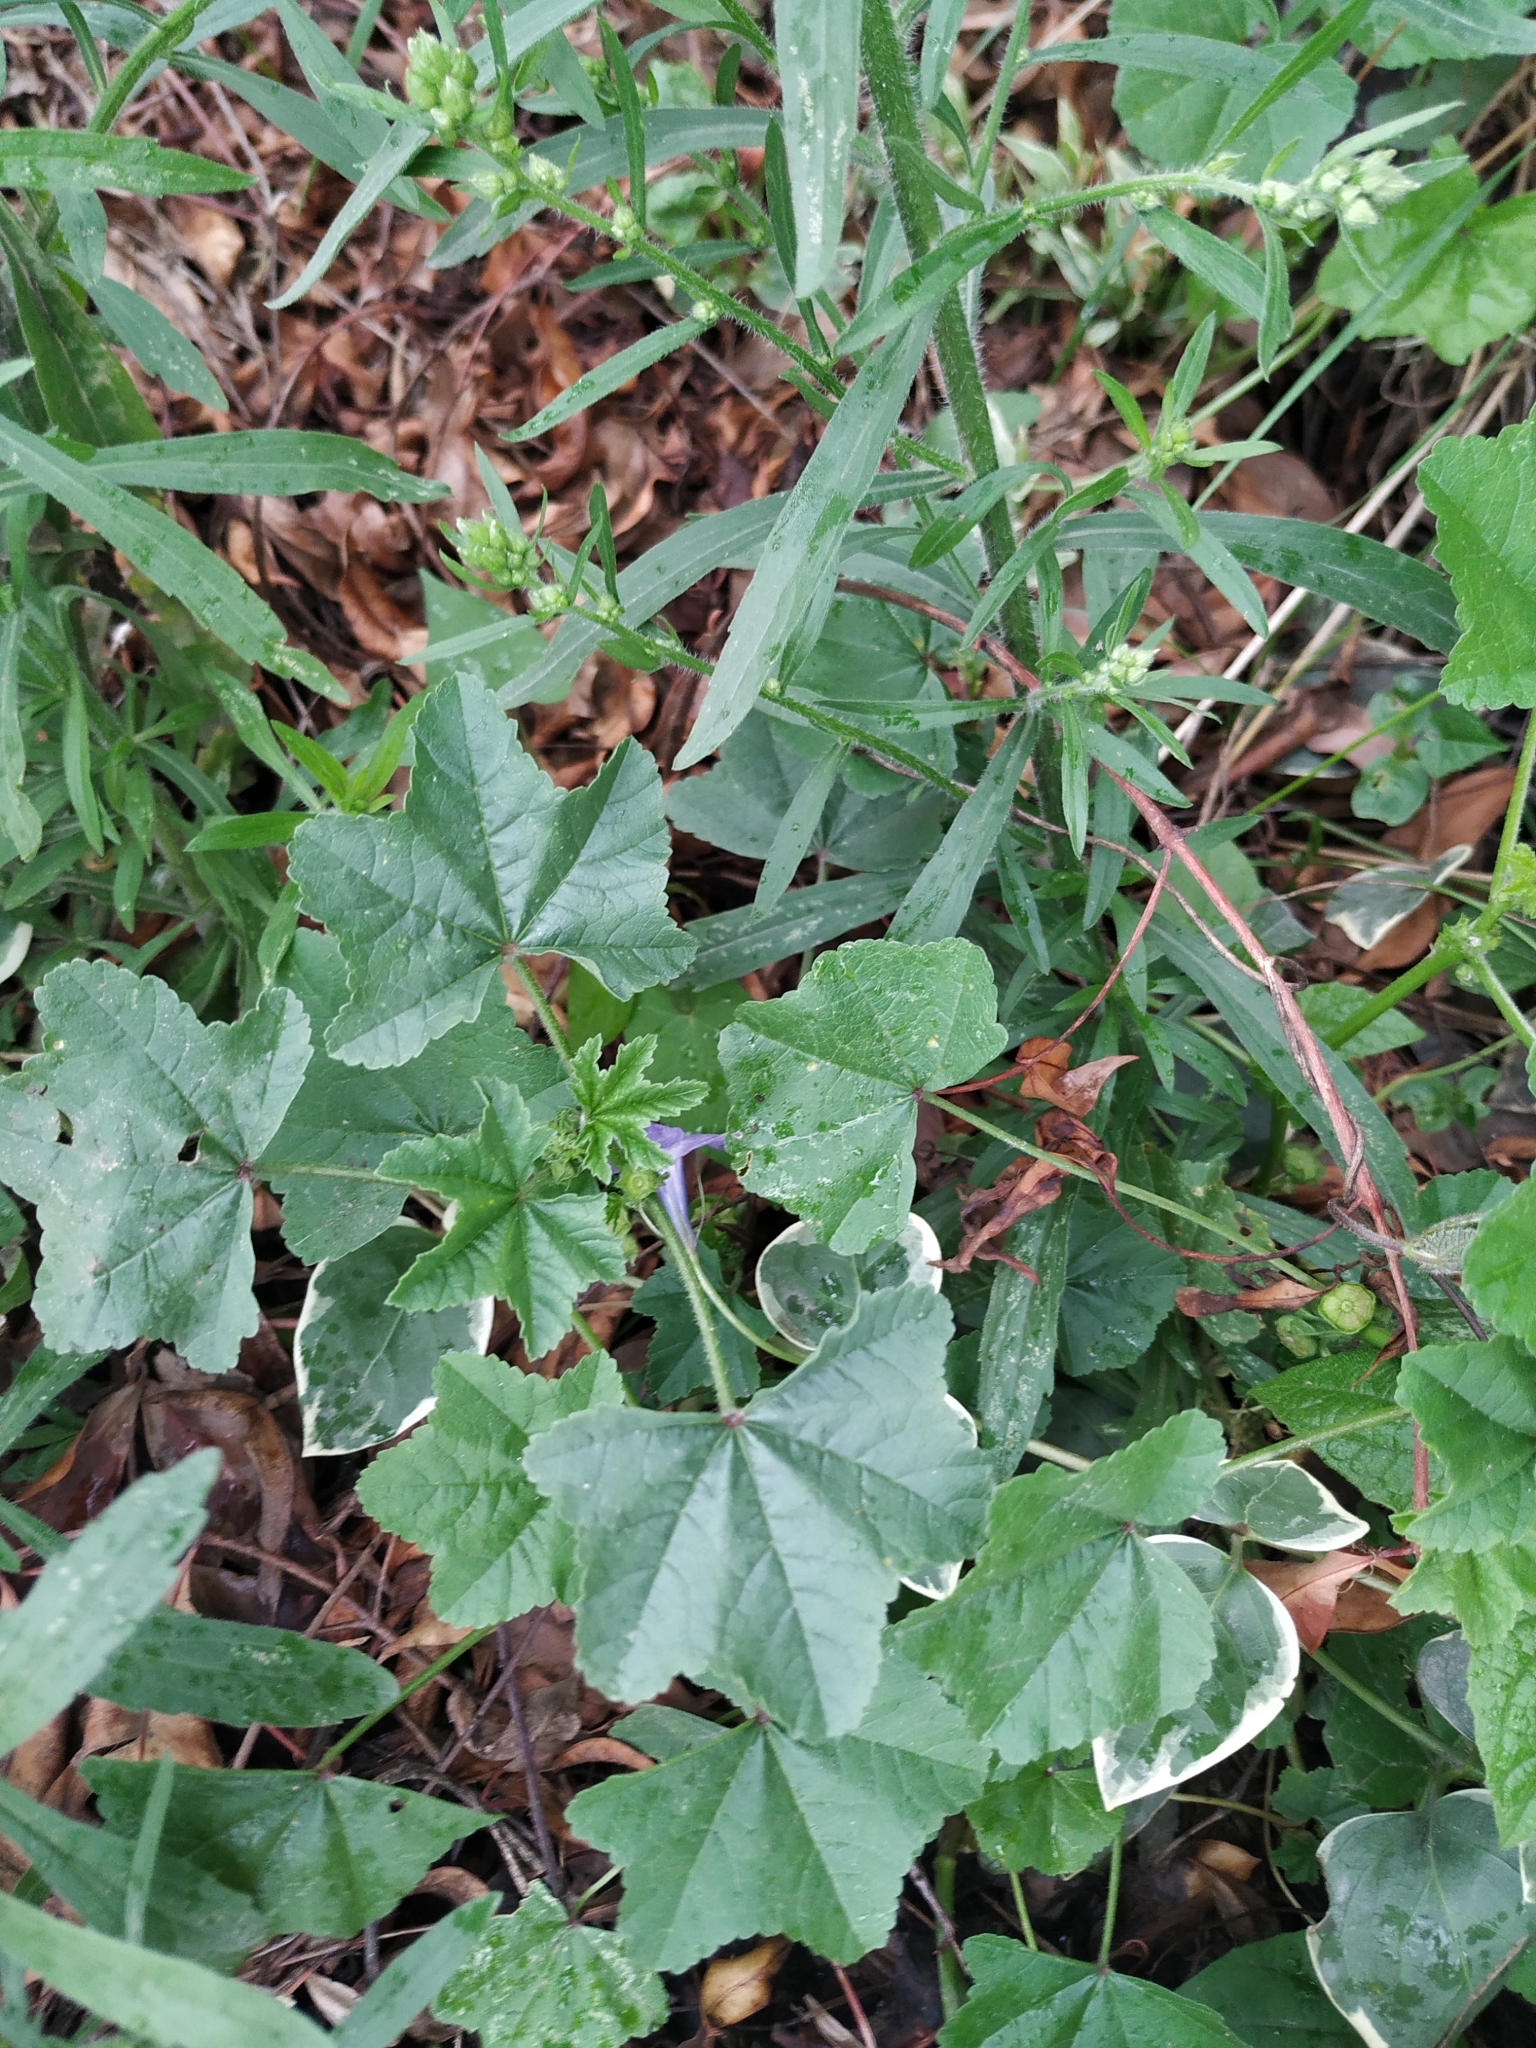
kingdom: Plantae
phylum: Tracheophyta
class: Magnoliopsida
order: Malvales
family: Malvaceae
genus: Malva
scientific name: Malva parviflora
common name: Least mallow
